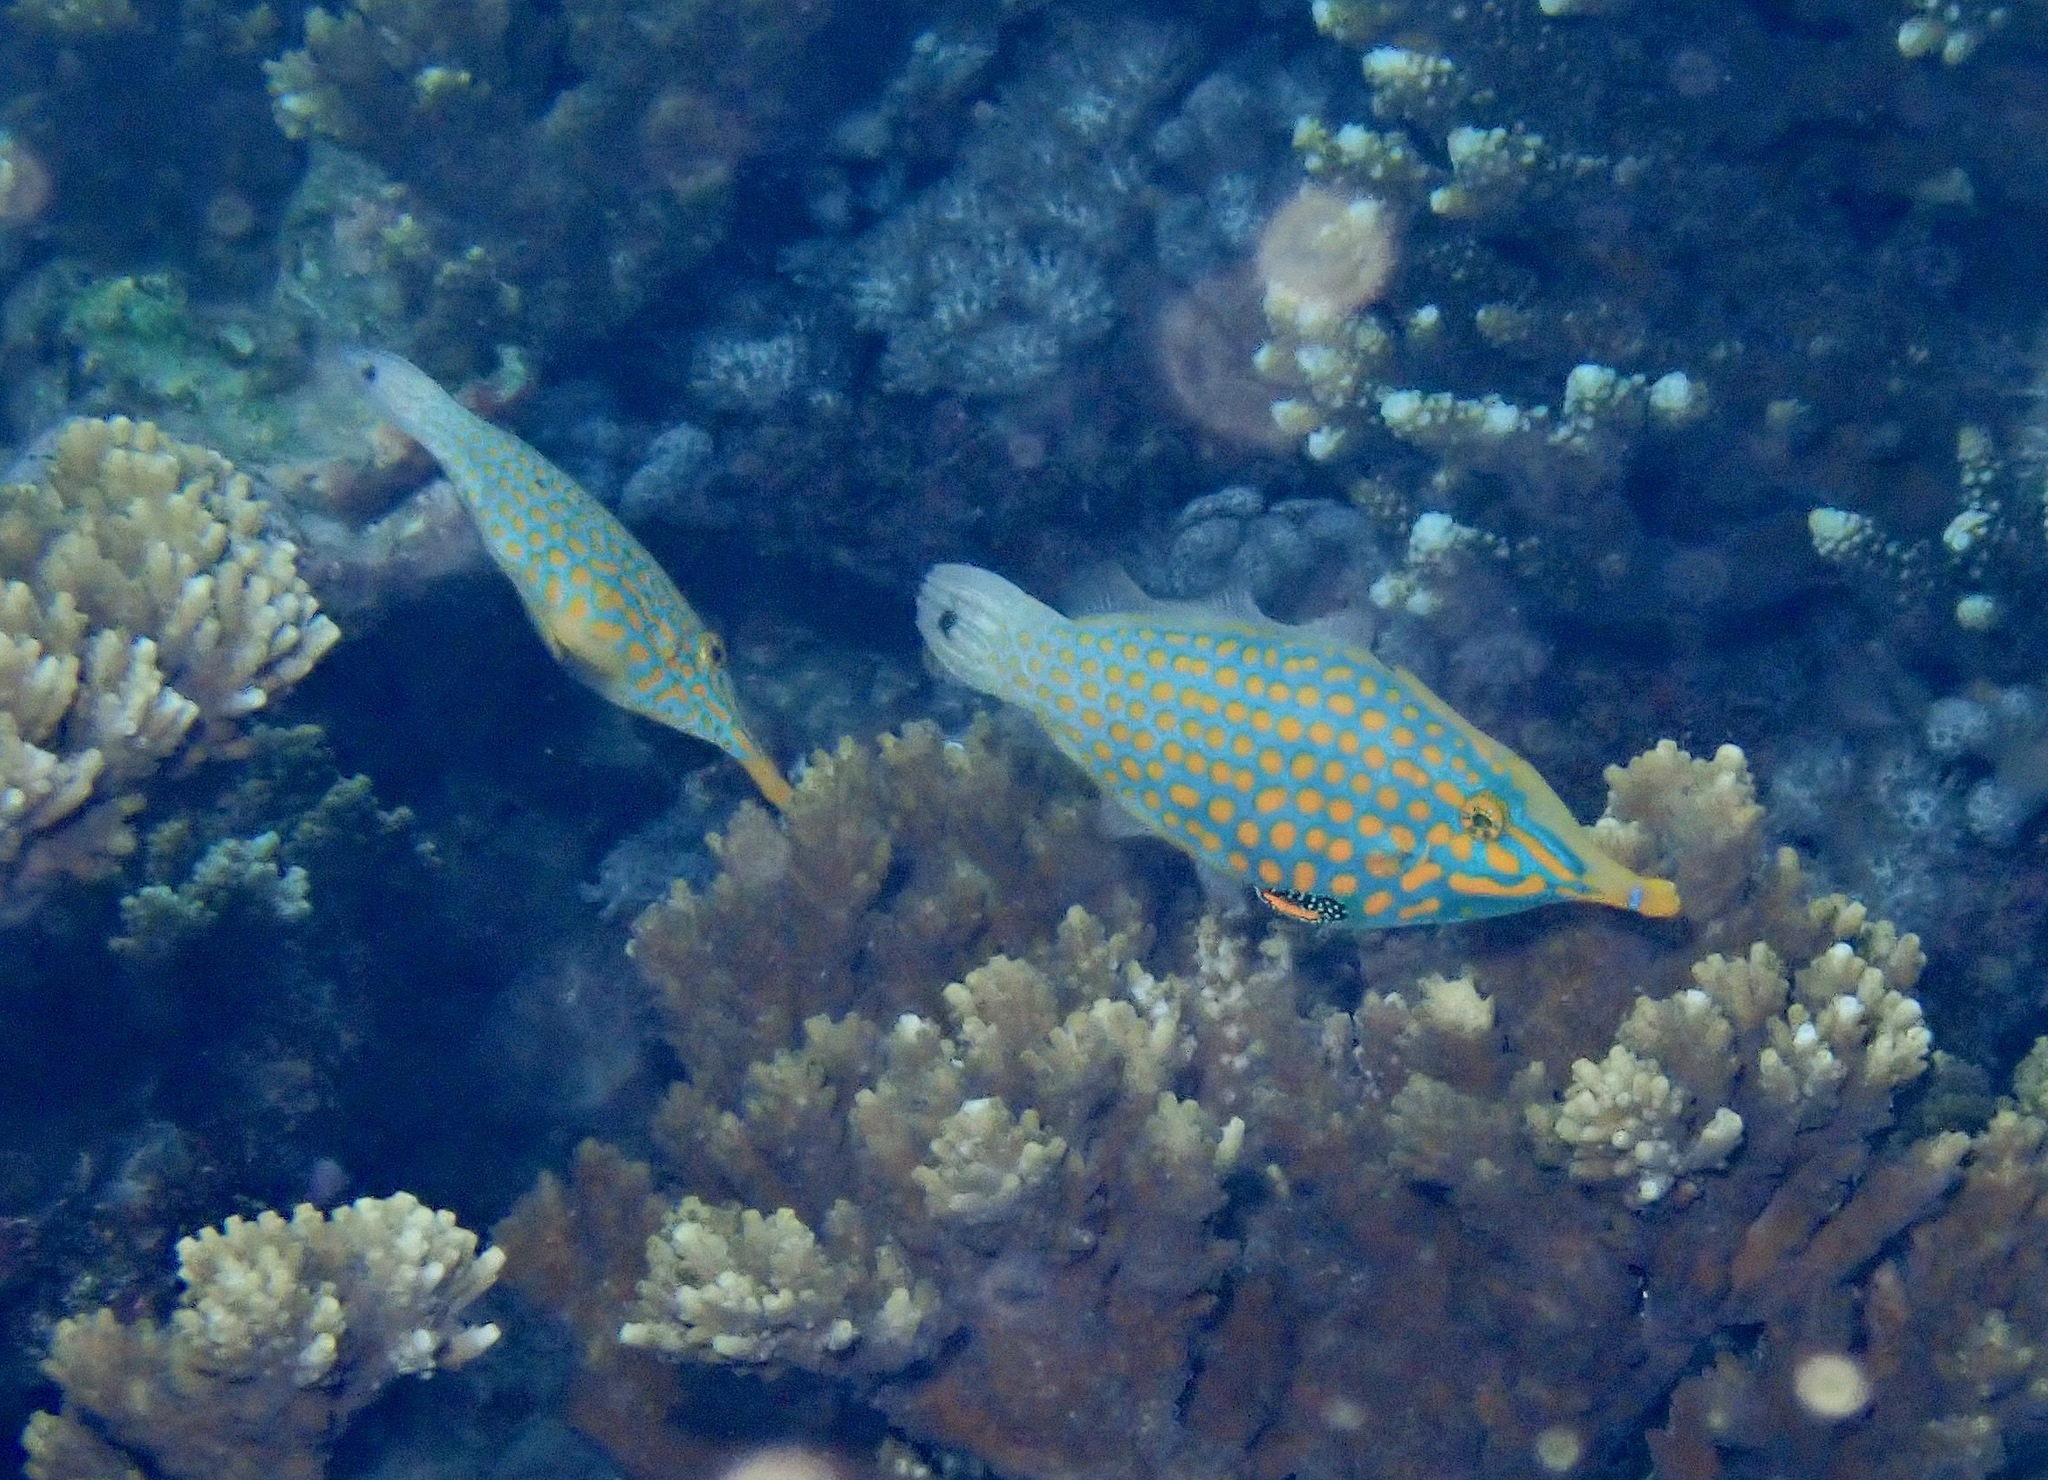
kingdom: Animalia
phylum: Chordata
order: Tetraodontiformes
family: Monacanthidae
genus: Oxymonacanthus
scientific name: Oxymonacanthus longirostris
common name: Beaked leatherjacket
